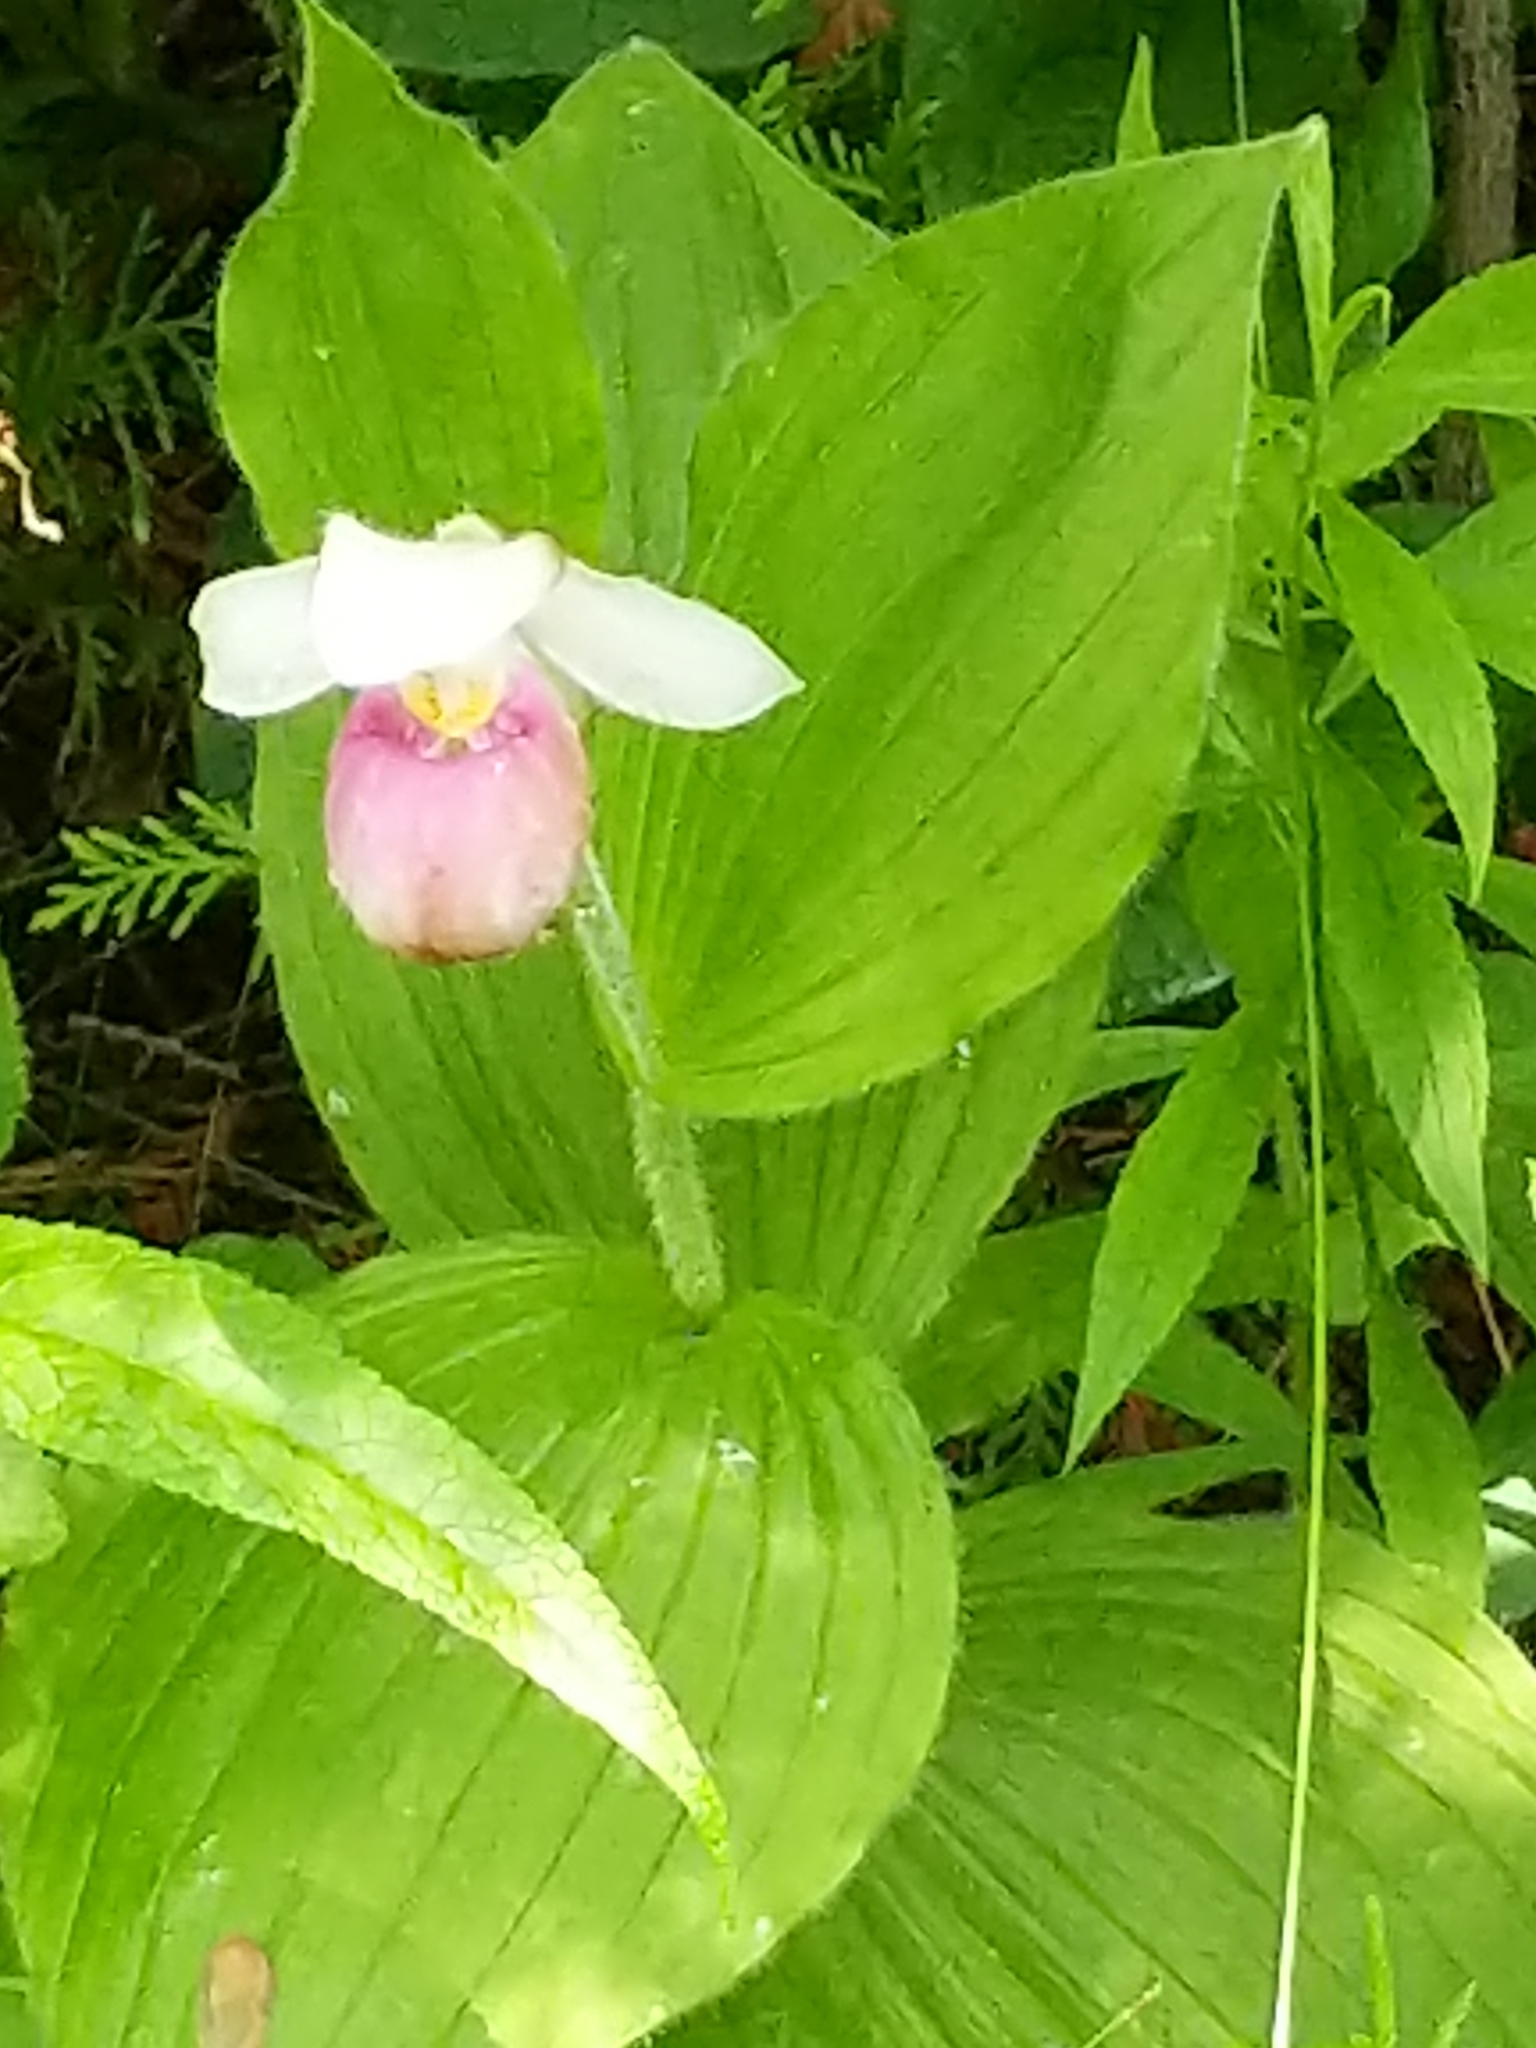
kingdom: Plantae
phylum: Tracheophyta
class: Liliopsida
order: Asparagales
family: Orchidaceae
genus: Cypripedium
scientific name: Cypripedium reginae
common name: Queen lady's-slipper
